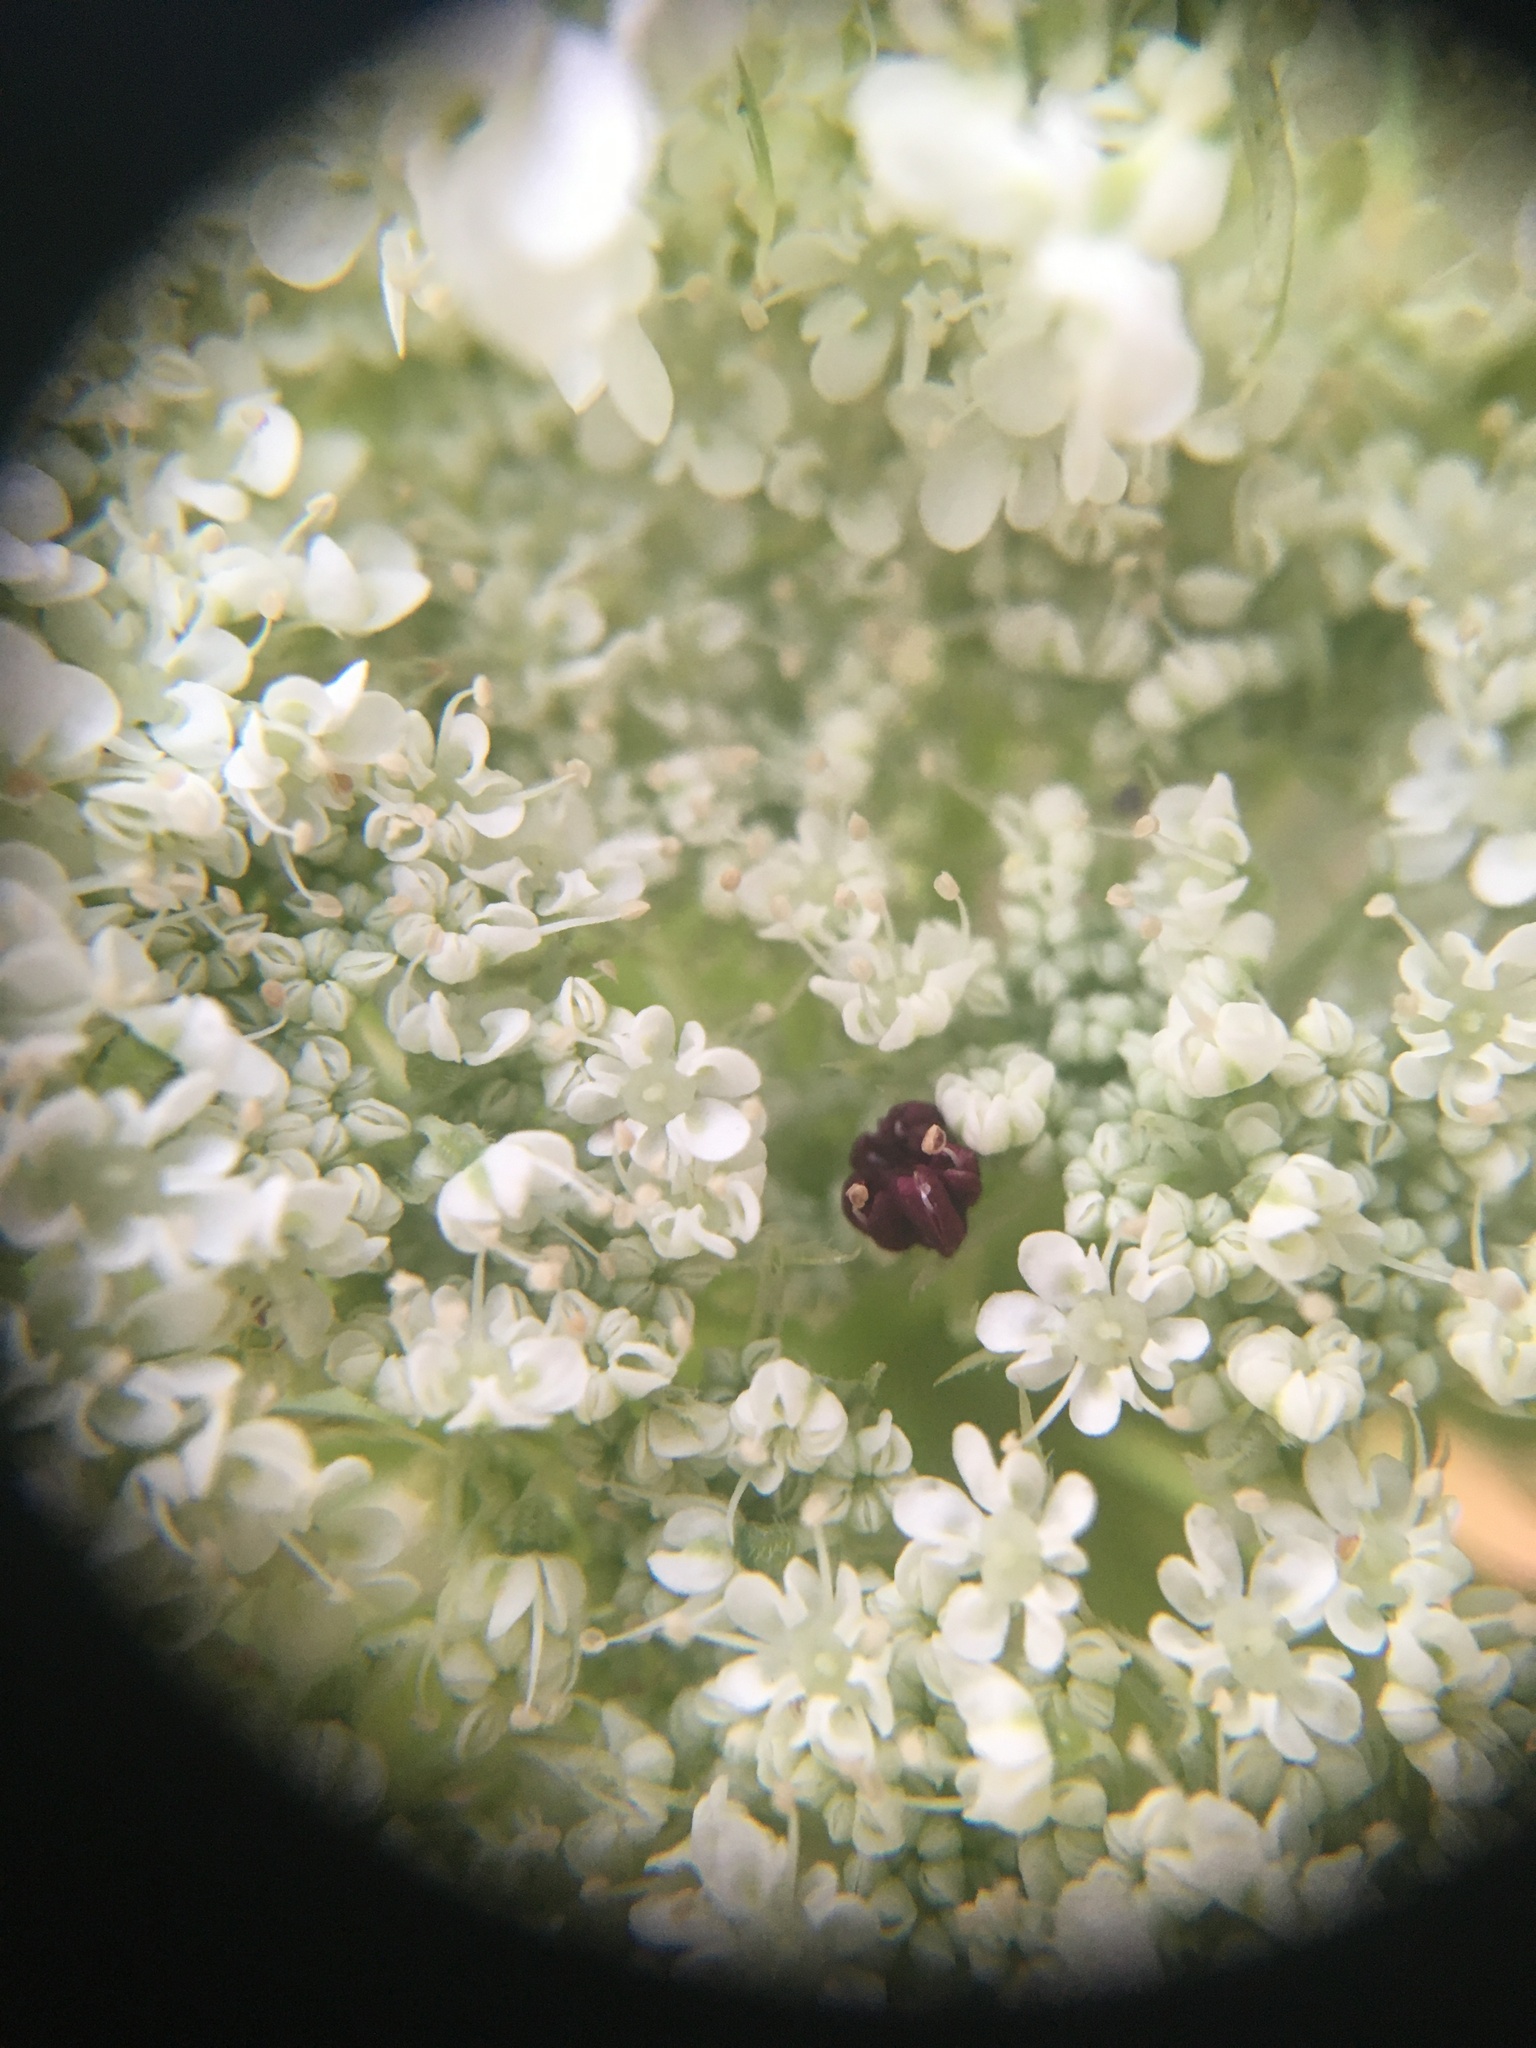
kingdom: Plantae
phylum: Tracheophyta
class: Magnoliopsida
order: Apiales
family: Apiaceae
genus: Daucus
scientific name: Daucus carota
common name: Wild carrot
